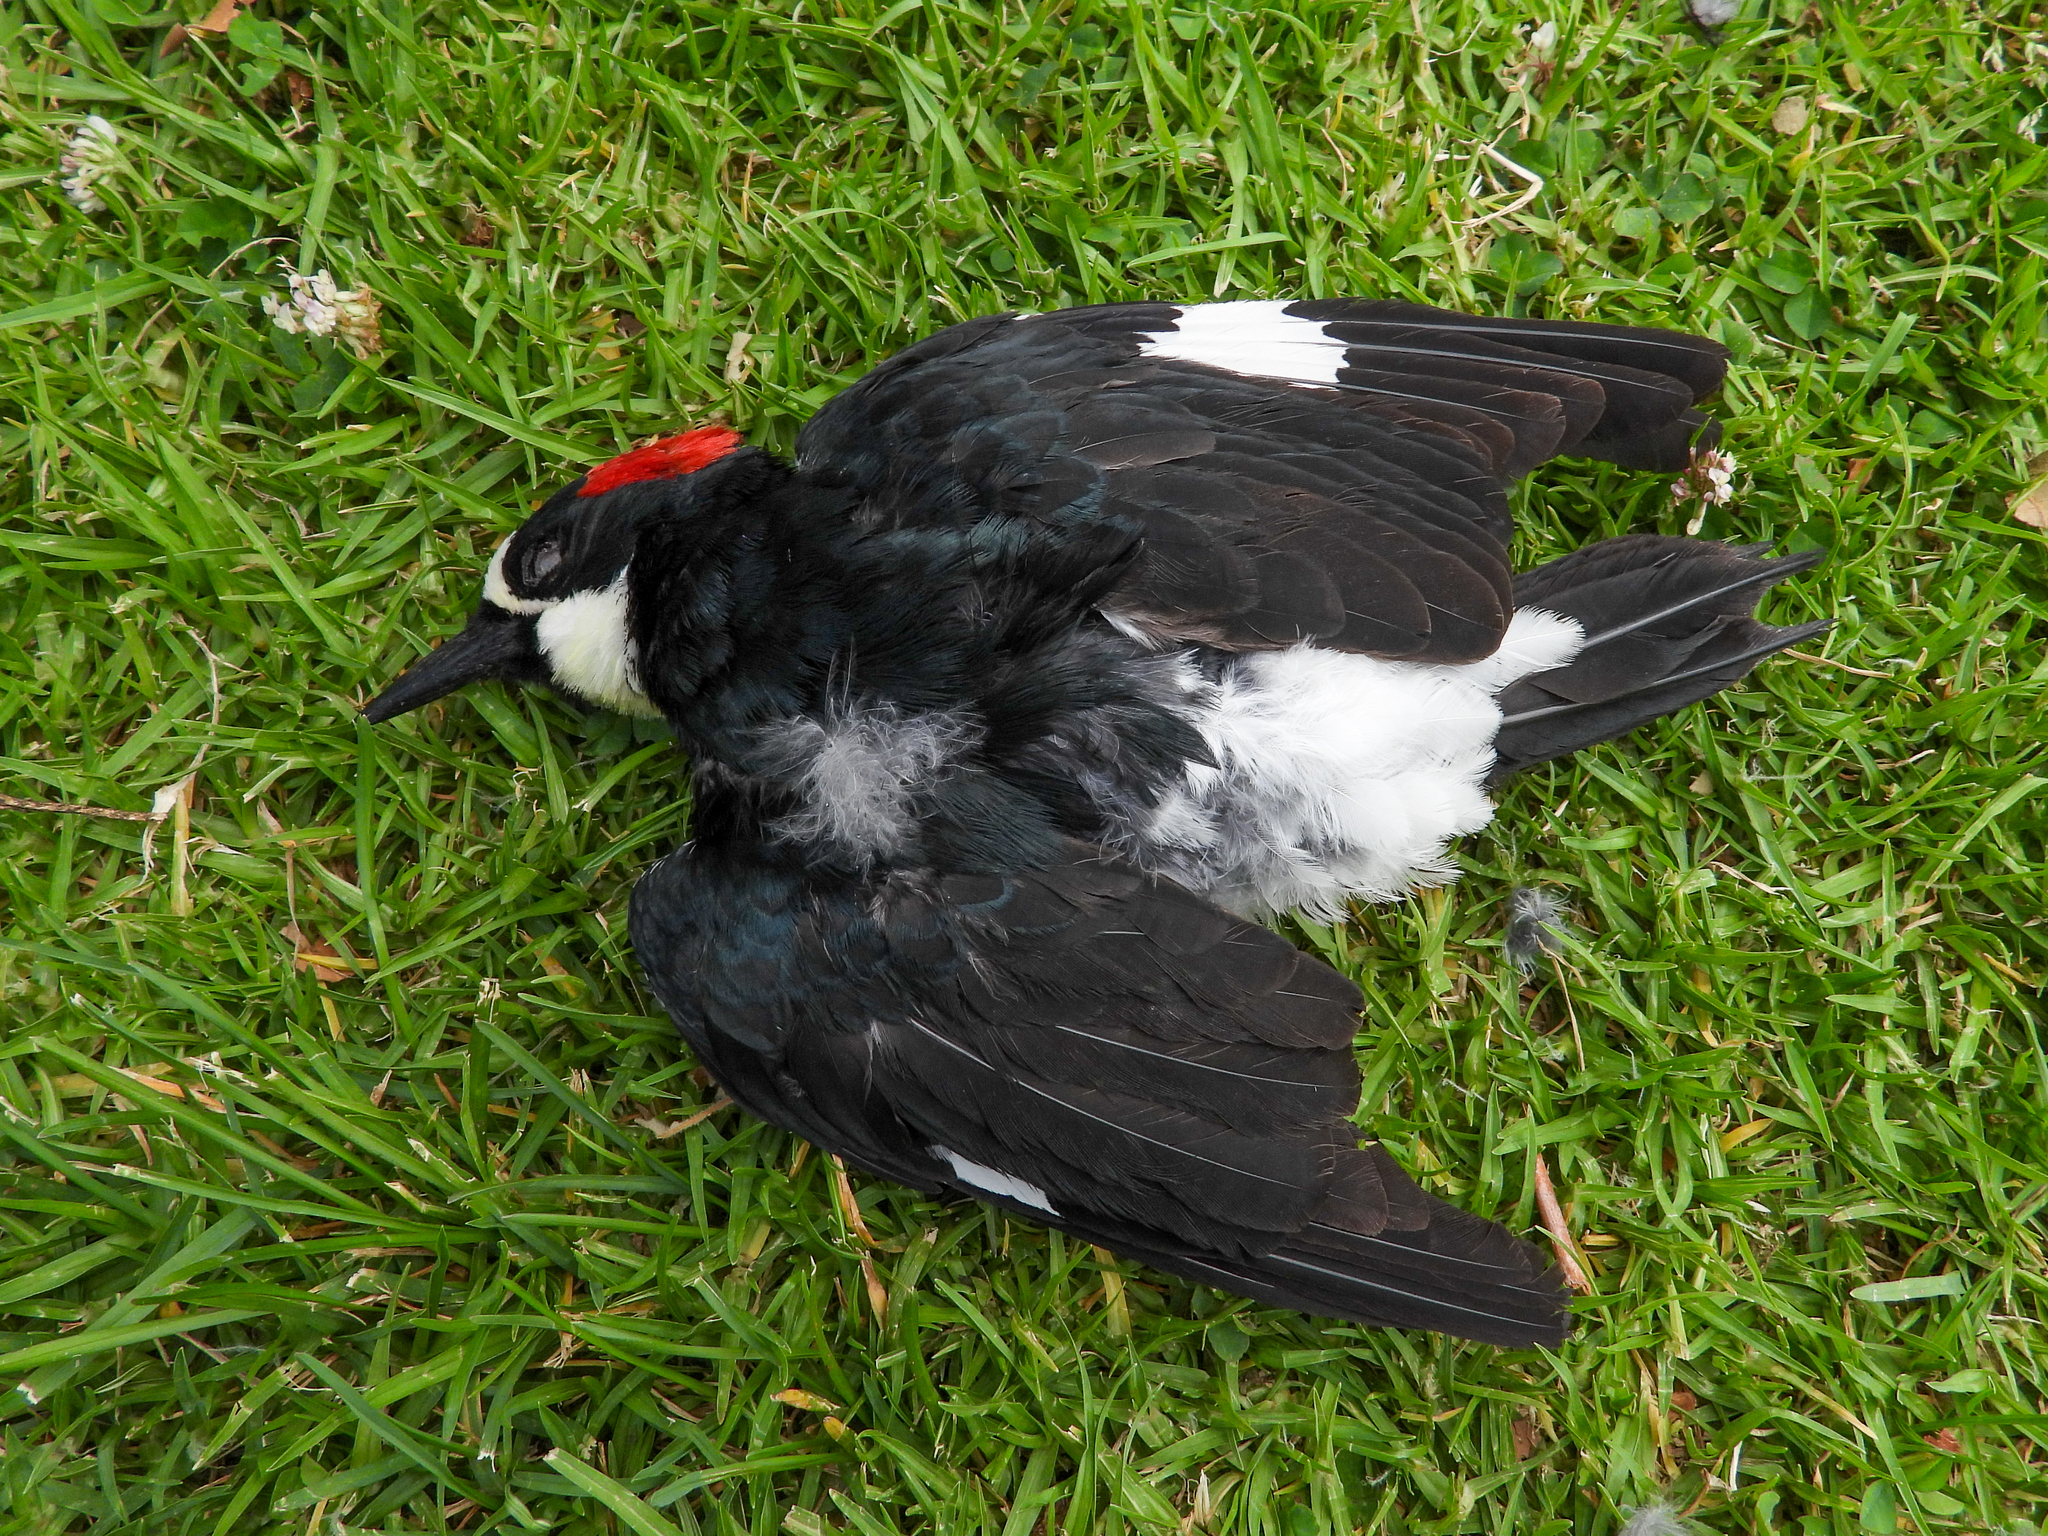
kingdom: Animalia
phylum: Chordata
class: Aves
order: Piciformes
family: Picidae
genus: Melanerpes
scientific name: Melanerpes formicivorus
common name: Acorn woodpecker
